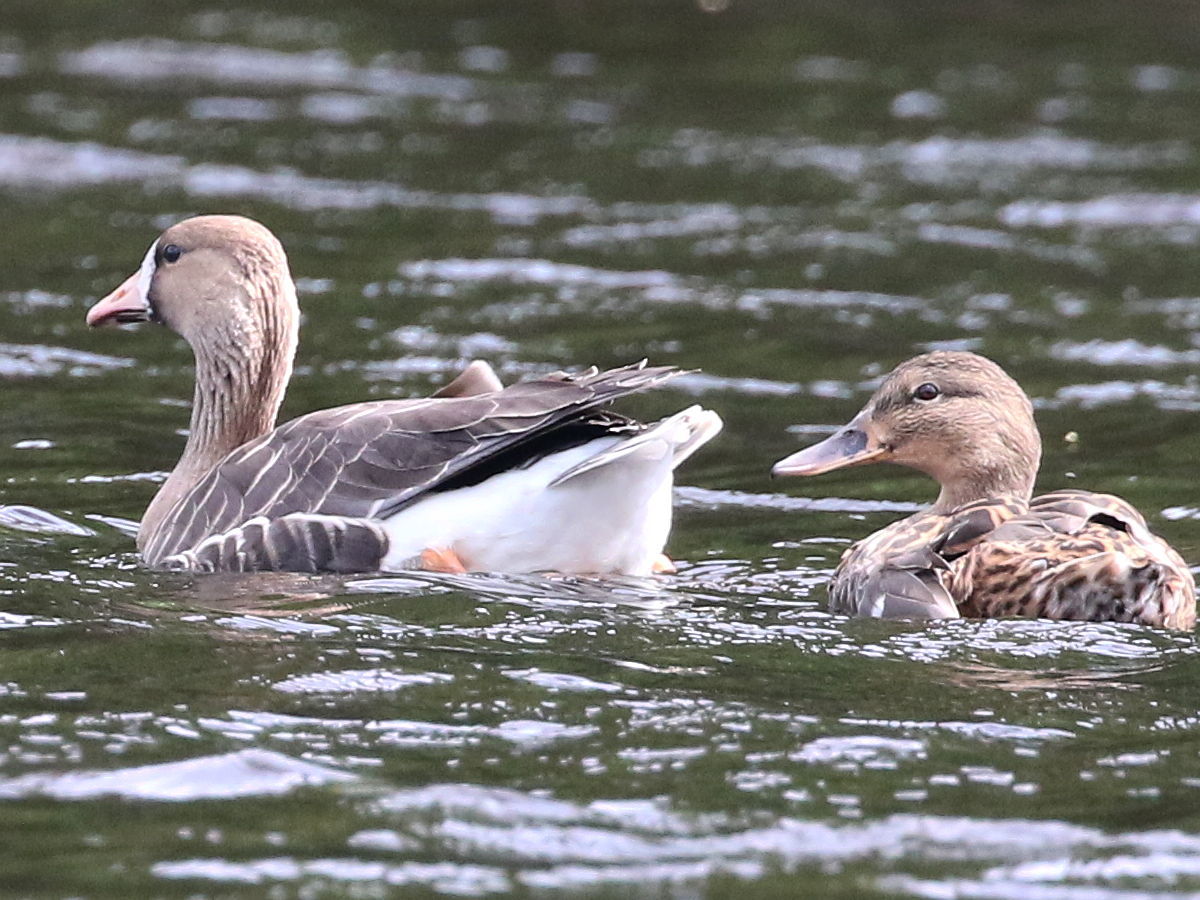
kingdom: Animalia
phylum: Chordata
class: Aves
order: Anseriformes
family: Anatidae
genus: Anser
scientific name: Anser albifrons
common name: Greater white-fronted goose
